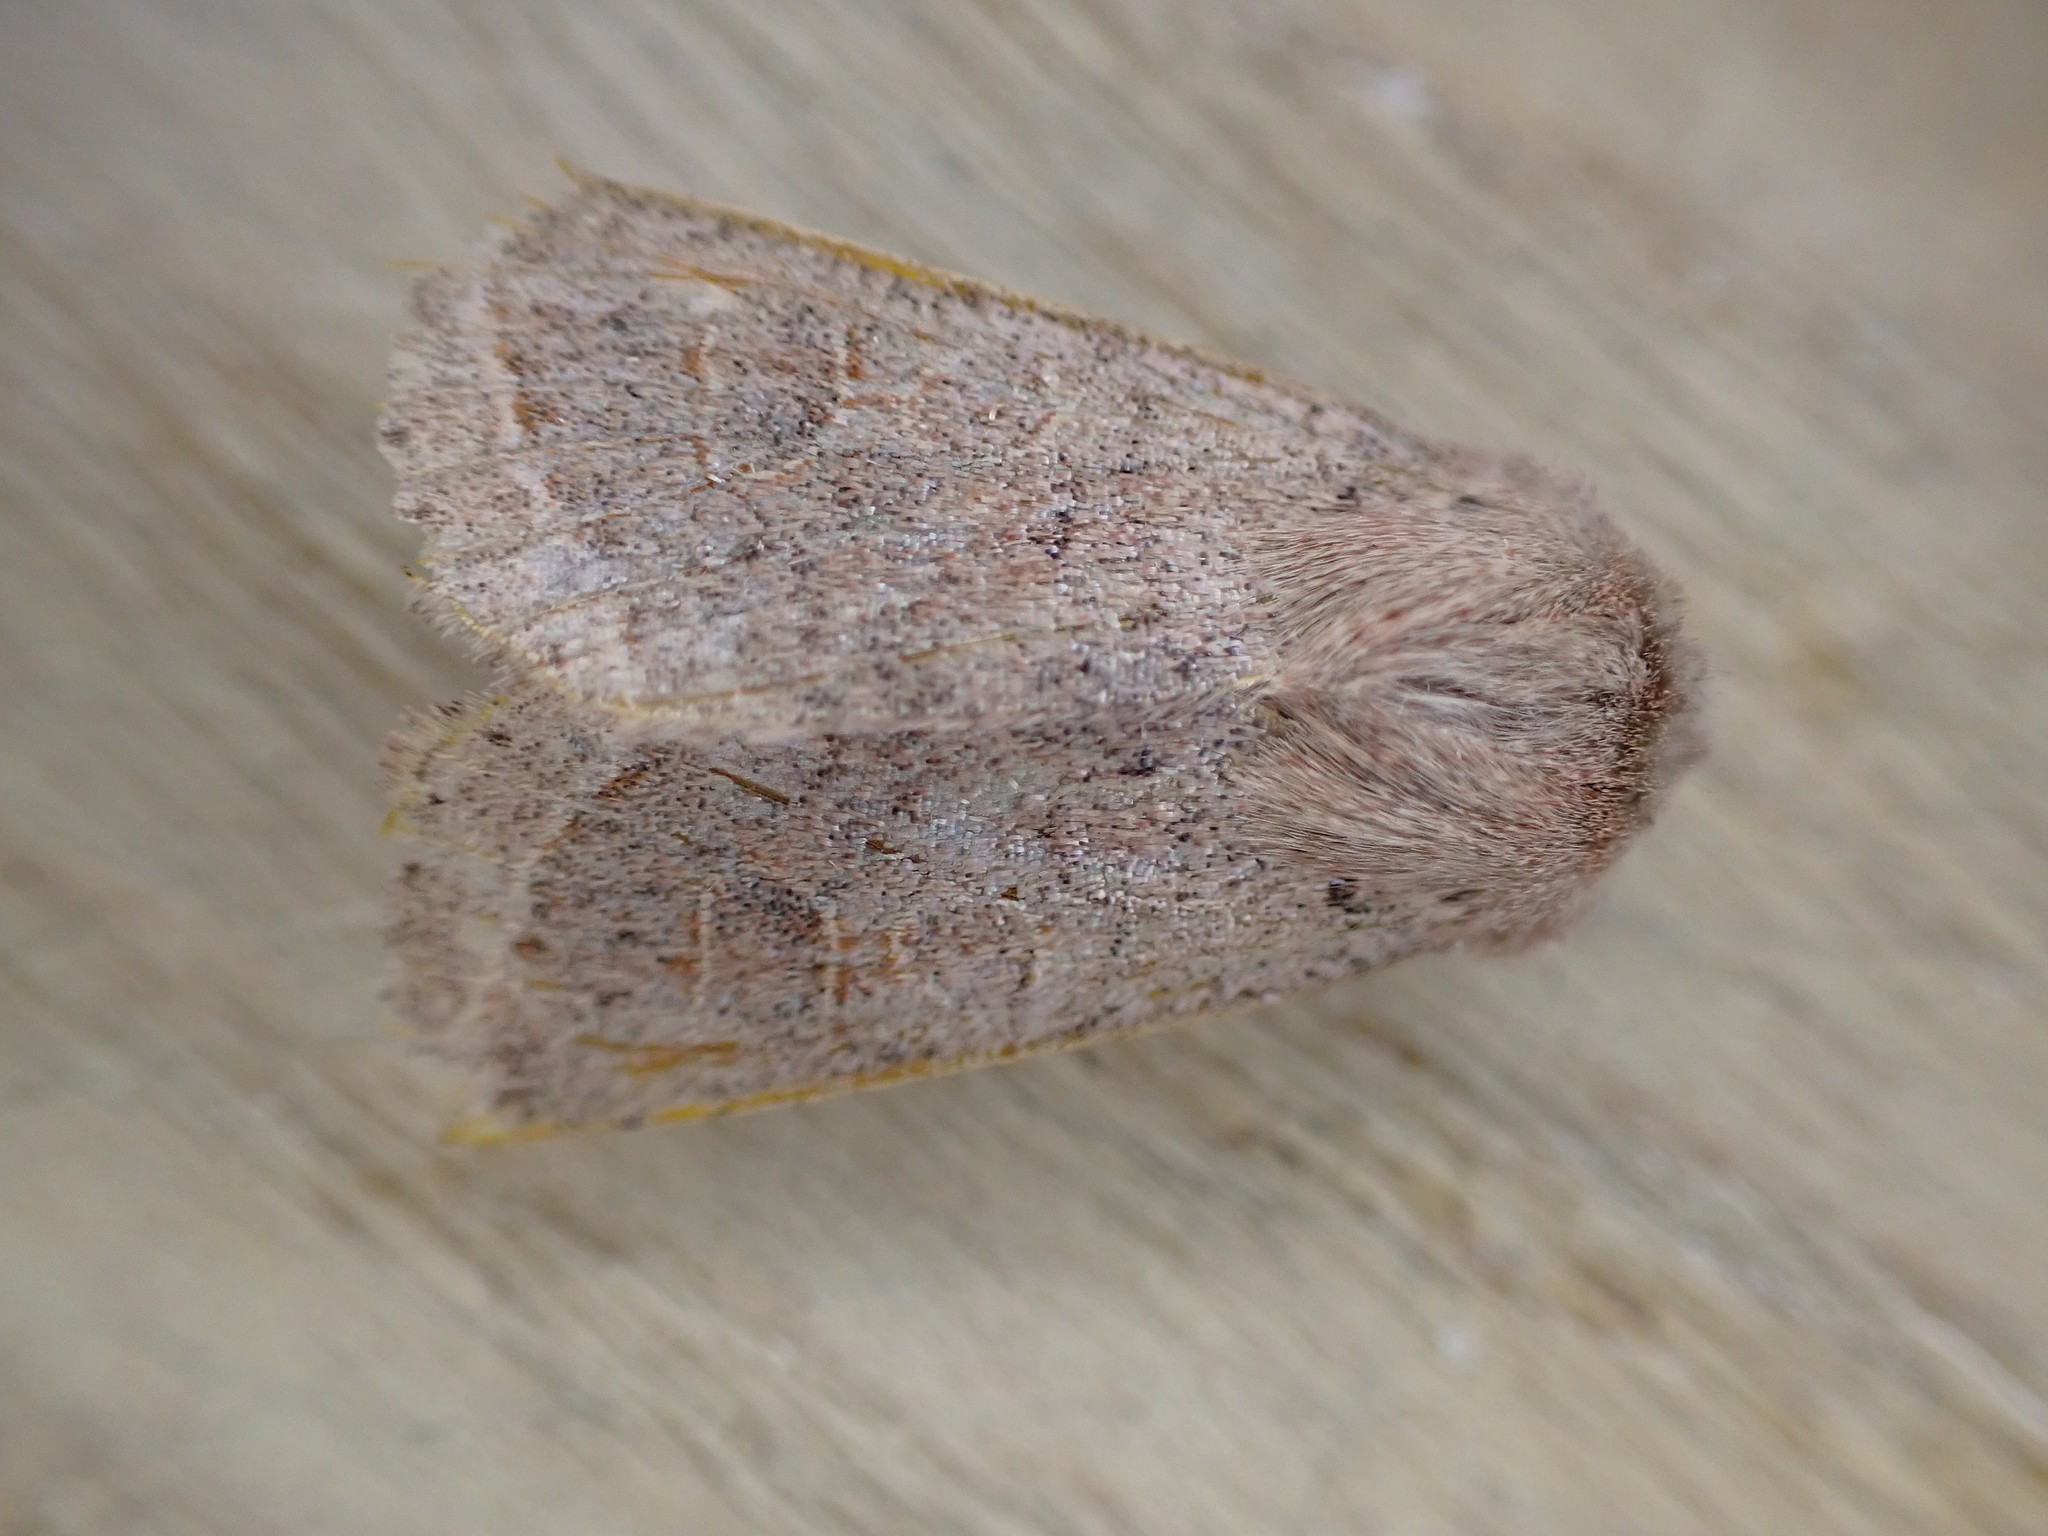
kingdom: Animalia
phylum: Arthropoda
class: Insecta
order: Lepidoptera
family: Noctuidae
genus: Orthosia
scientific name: Orthosia cruda
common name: Small quaker
